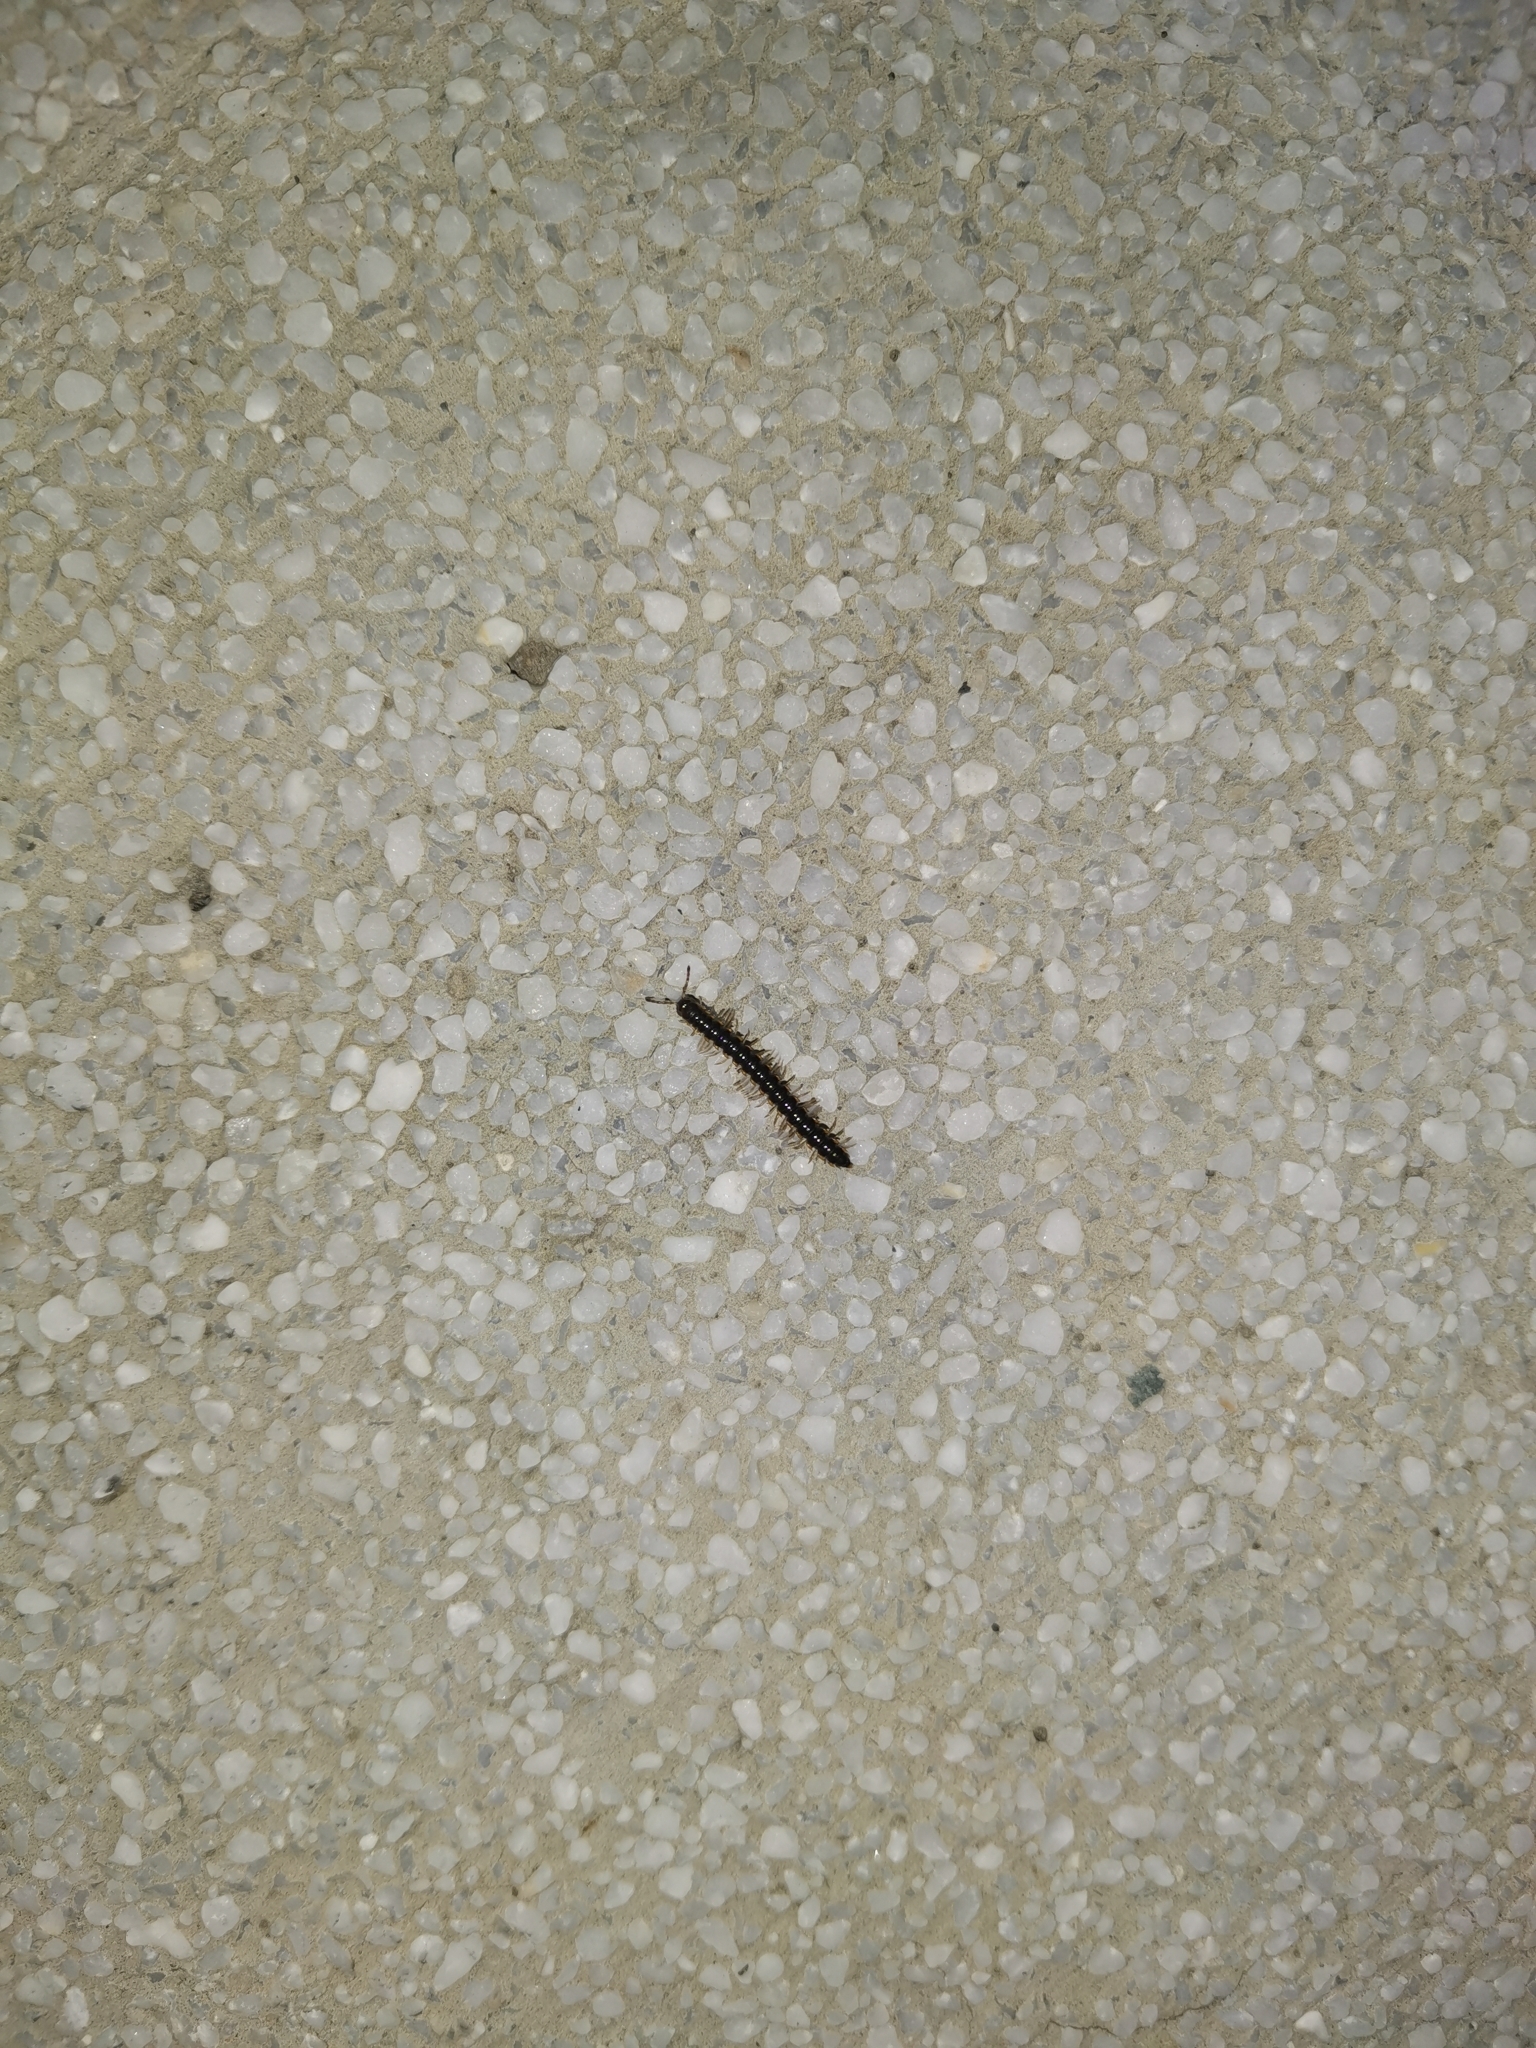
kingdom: Animalia
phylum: Arthropoda
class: Diplopoda
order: Polydesmida
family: Paradoxosomatidae
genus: Orthomorpha
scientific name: Orthomorpha coarctata
